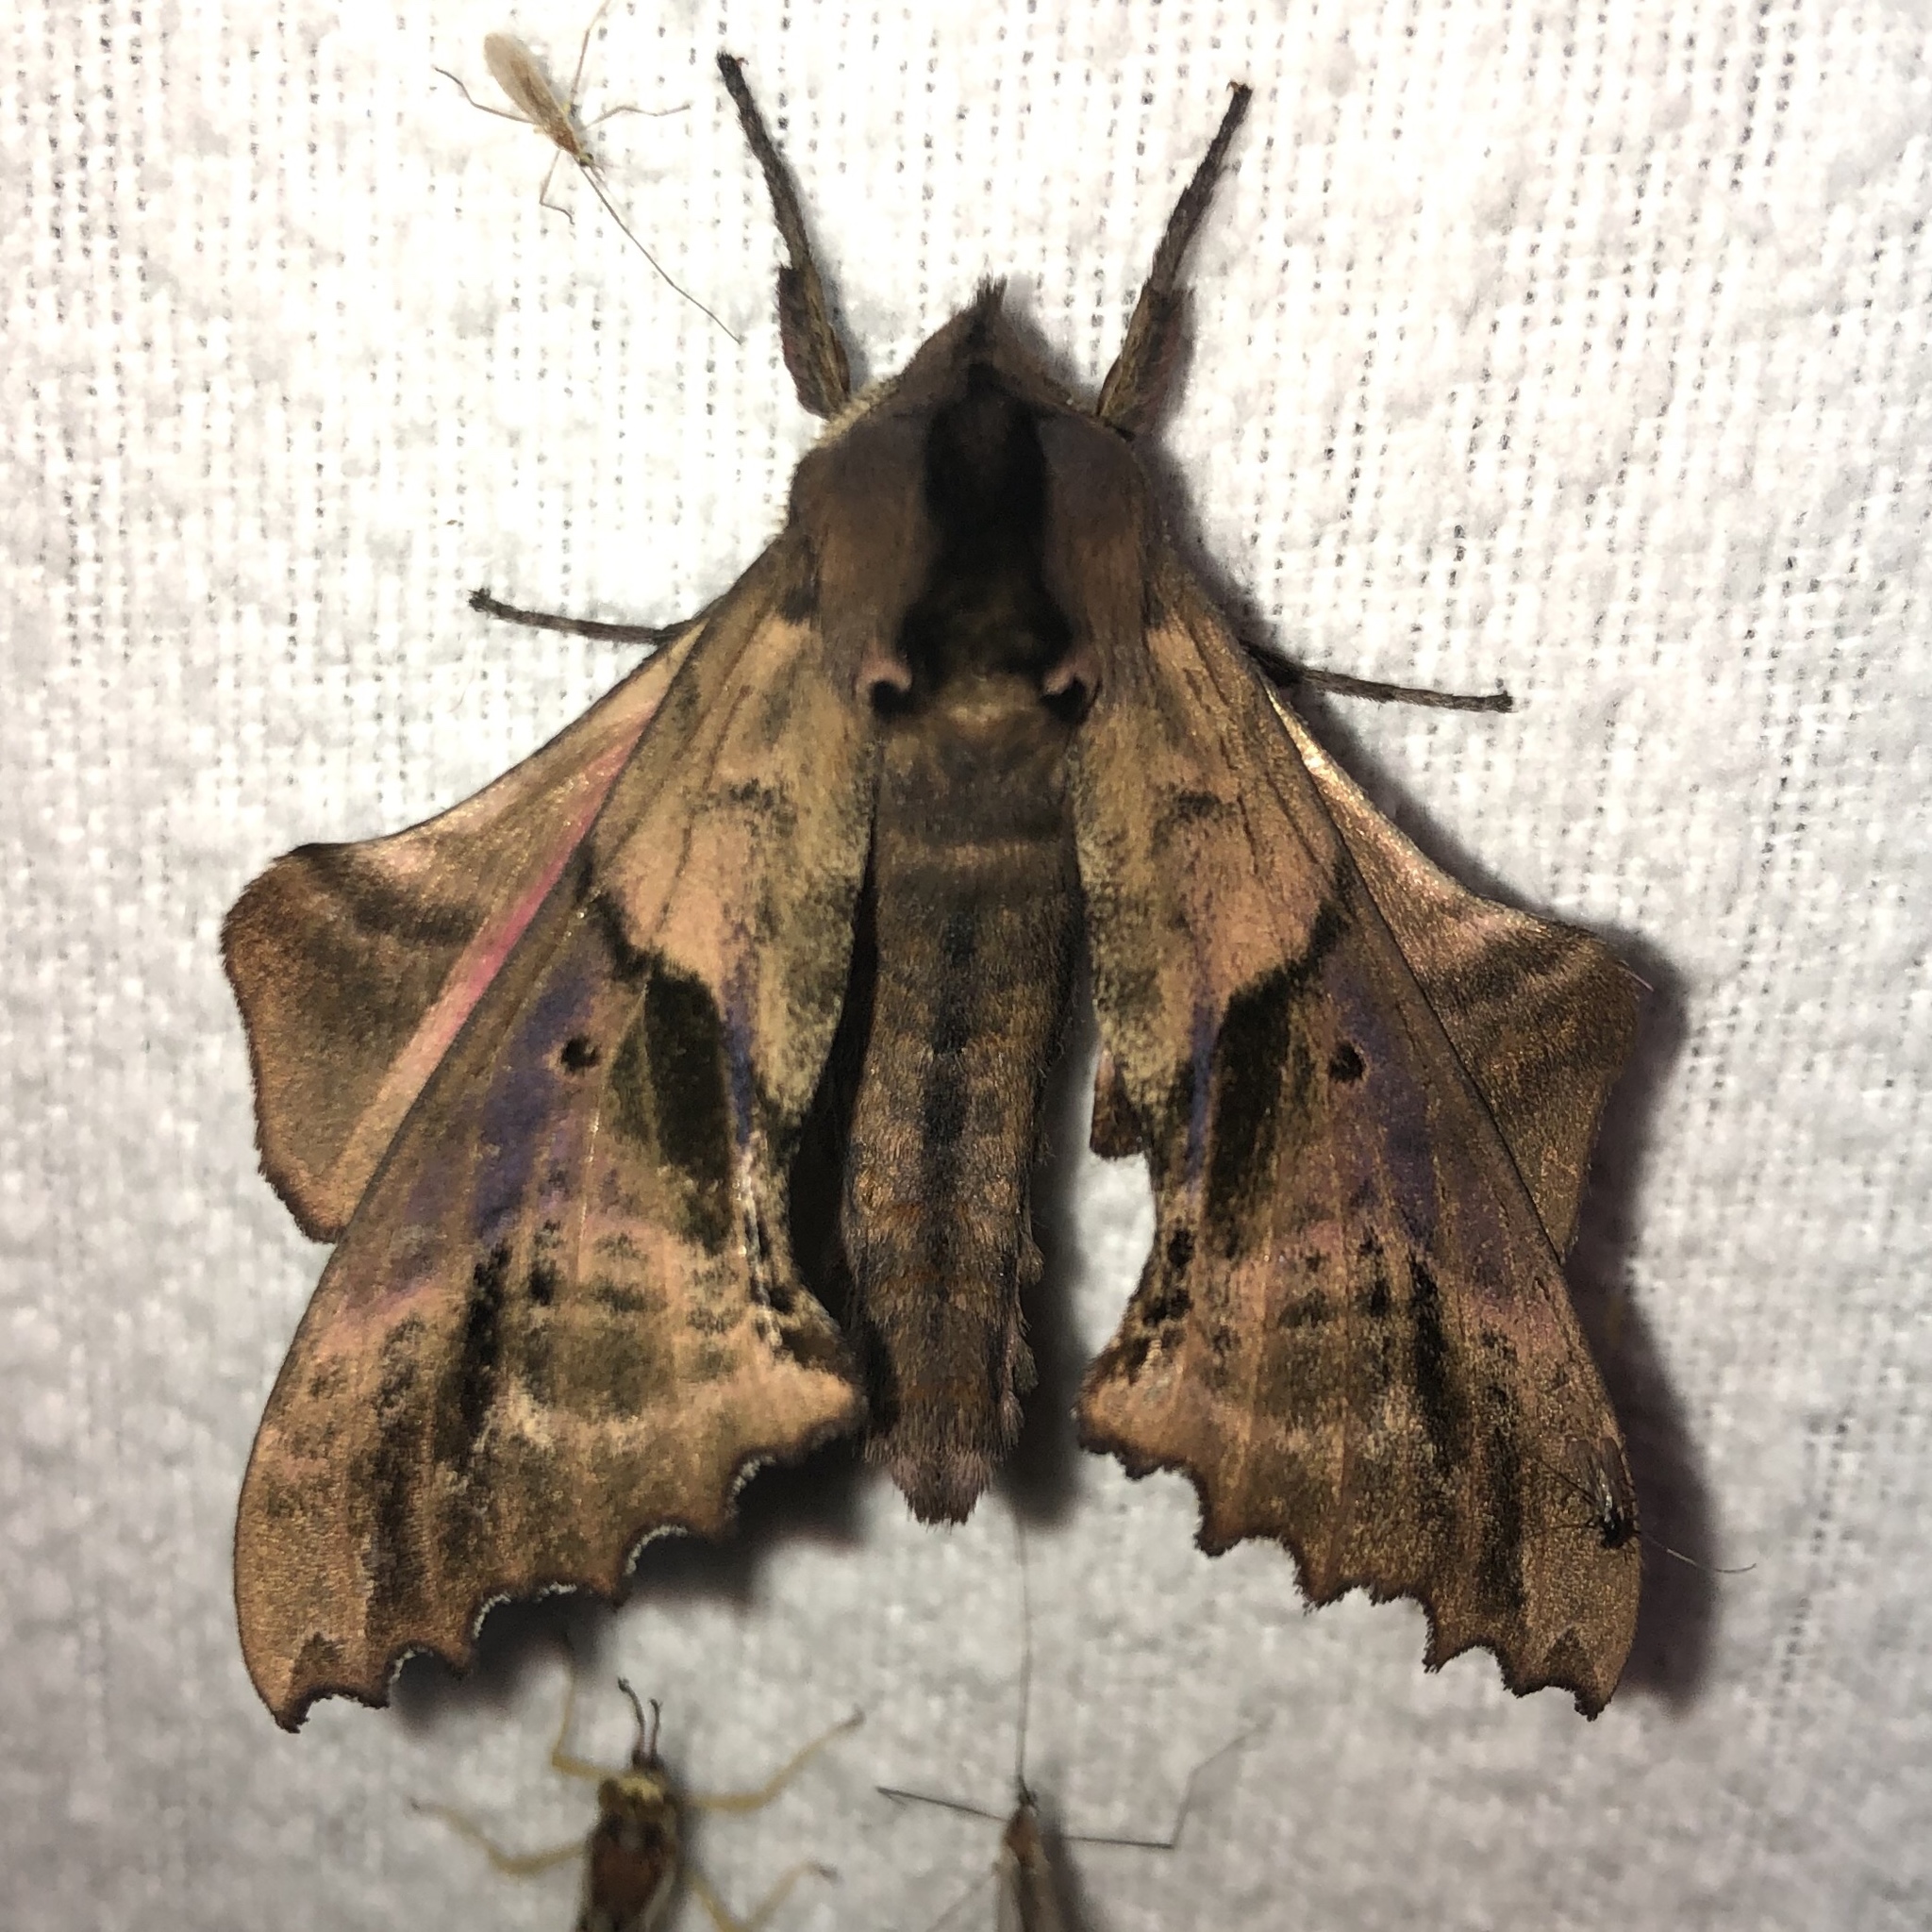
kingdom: Animalia
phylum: Arthropoda
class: Insecta
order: Lepidoptera
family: Sphingidae
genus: Paonias
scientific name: Paonias excaecata
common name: Blind-eyed sphinx
